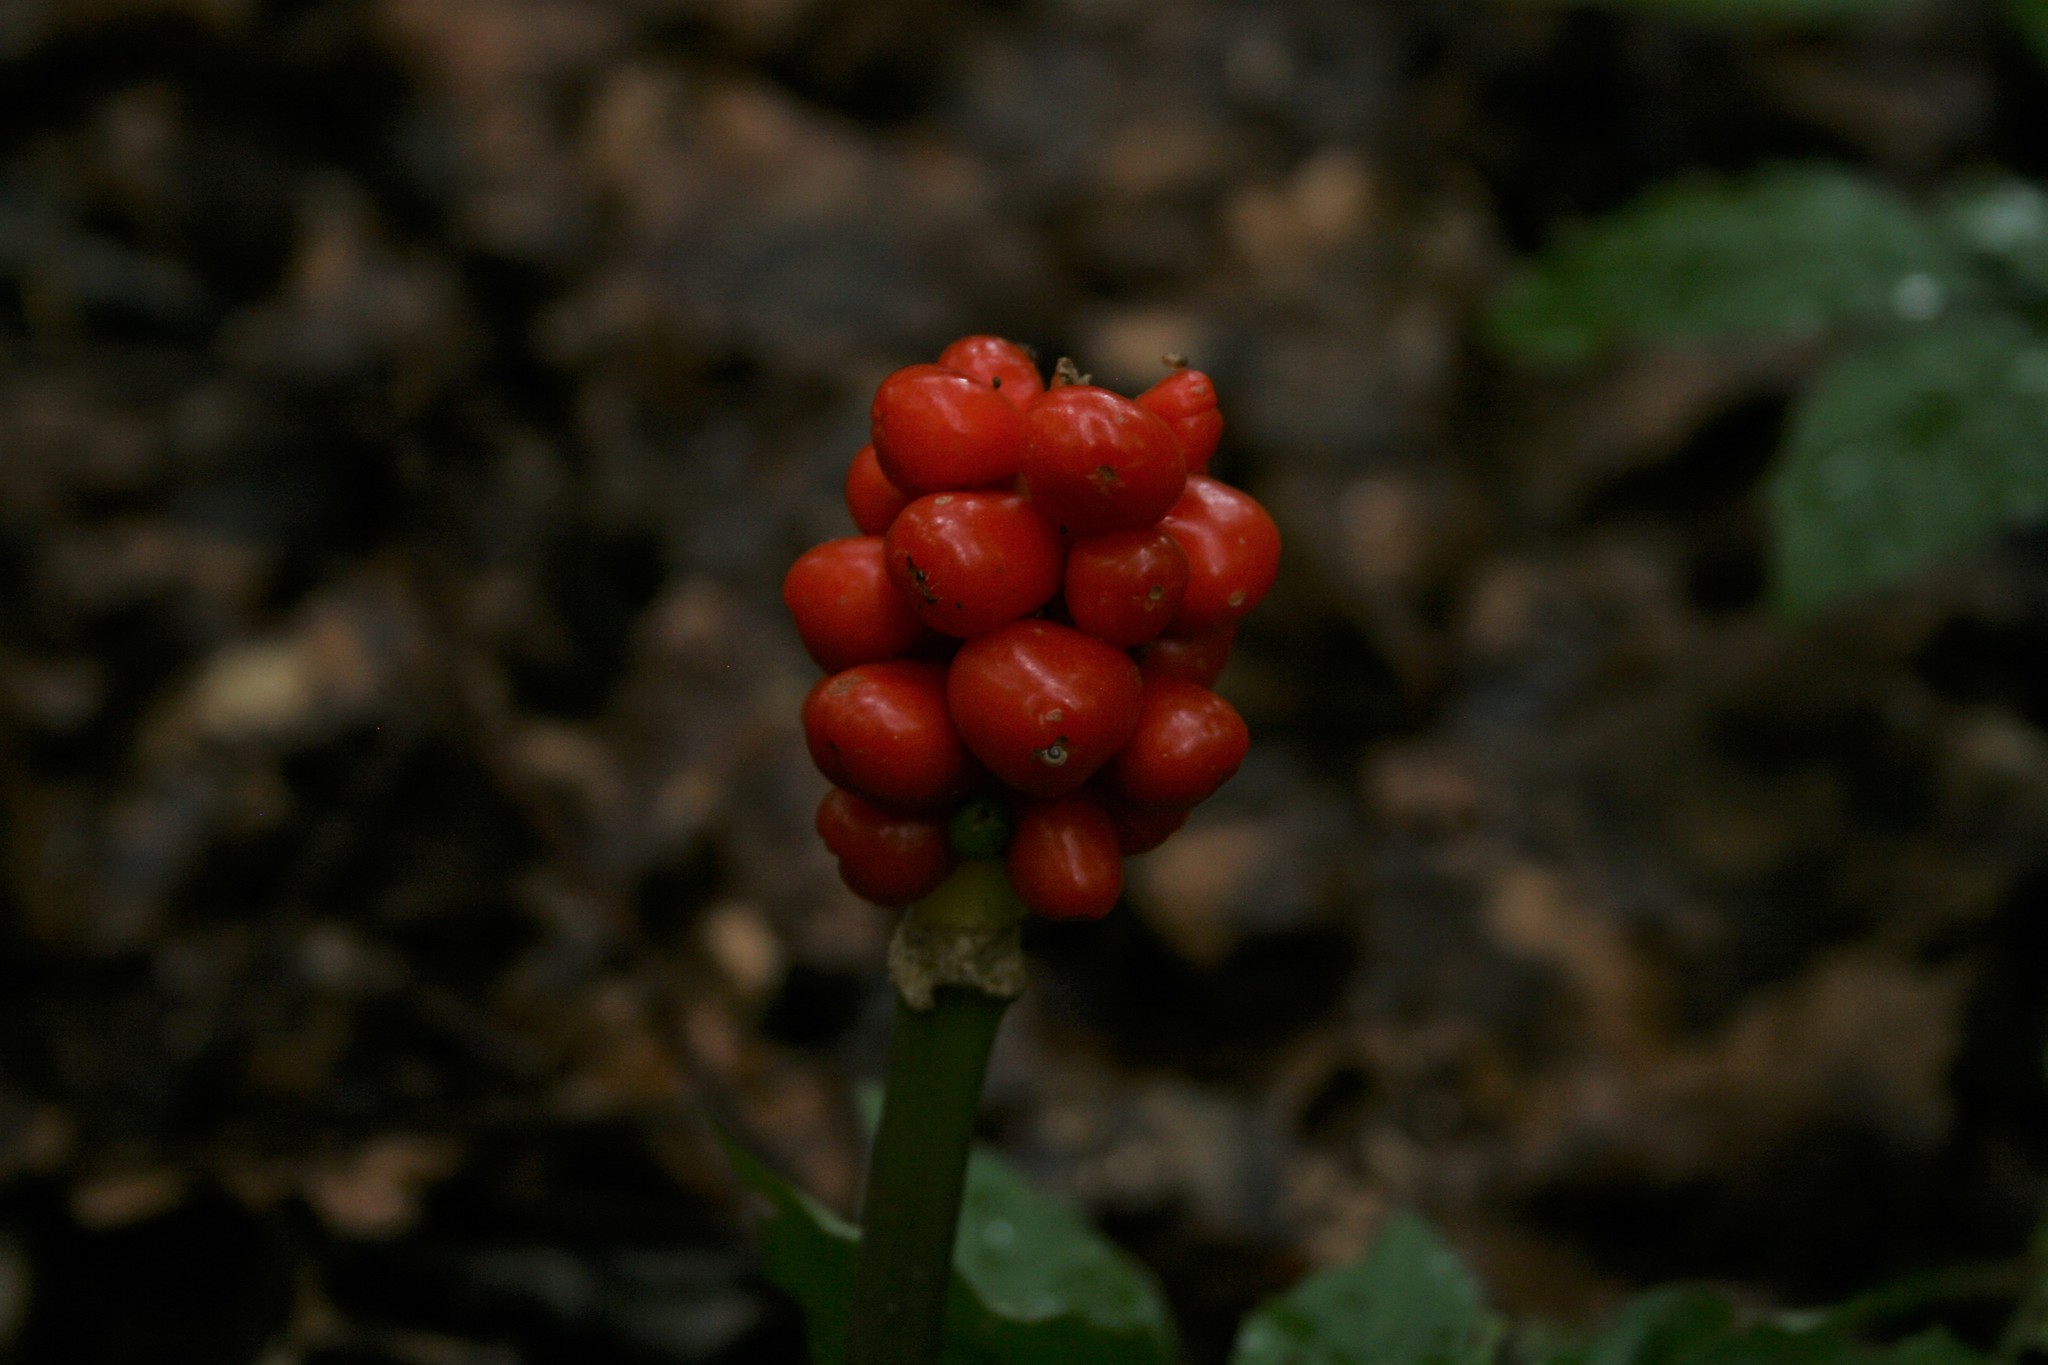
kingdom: Plantae
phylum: Tracheophyta
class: Liliopsida
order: Alismatales
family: Araceae
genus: Arum
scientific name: Arum maculatum
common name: Lords-and-ladies
